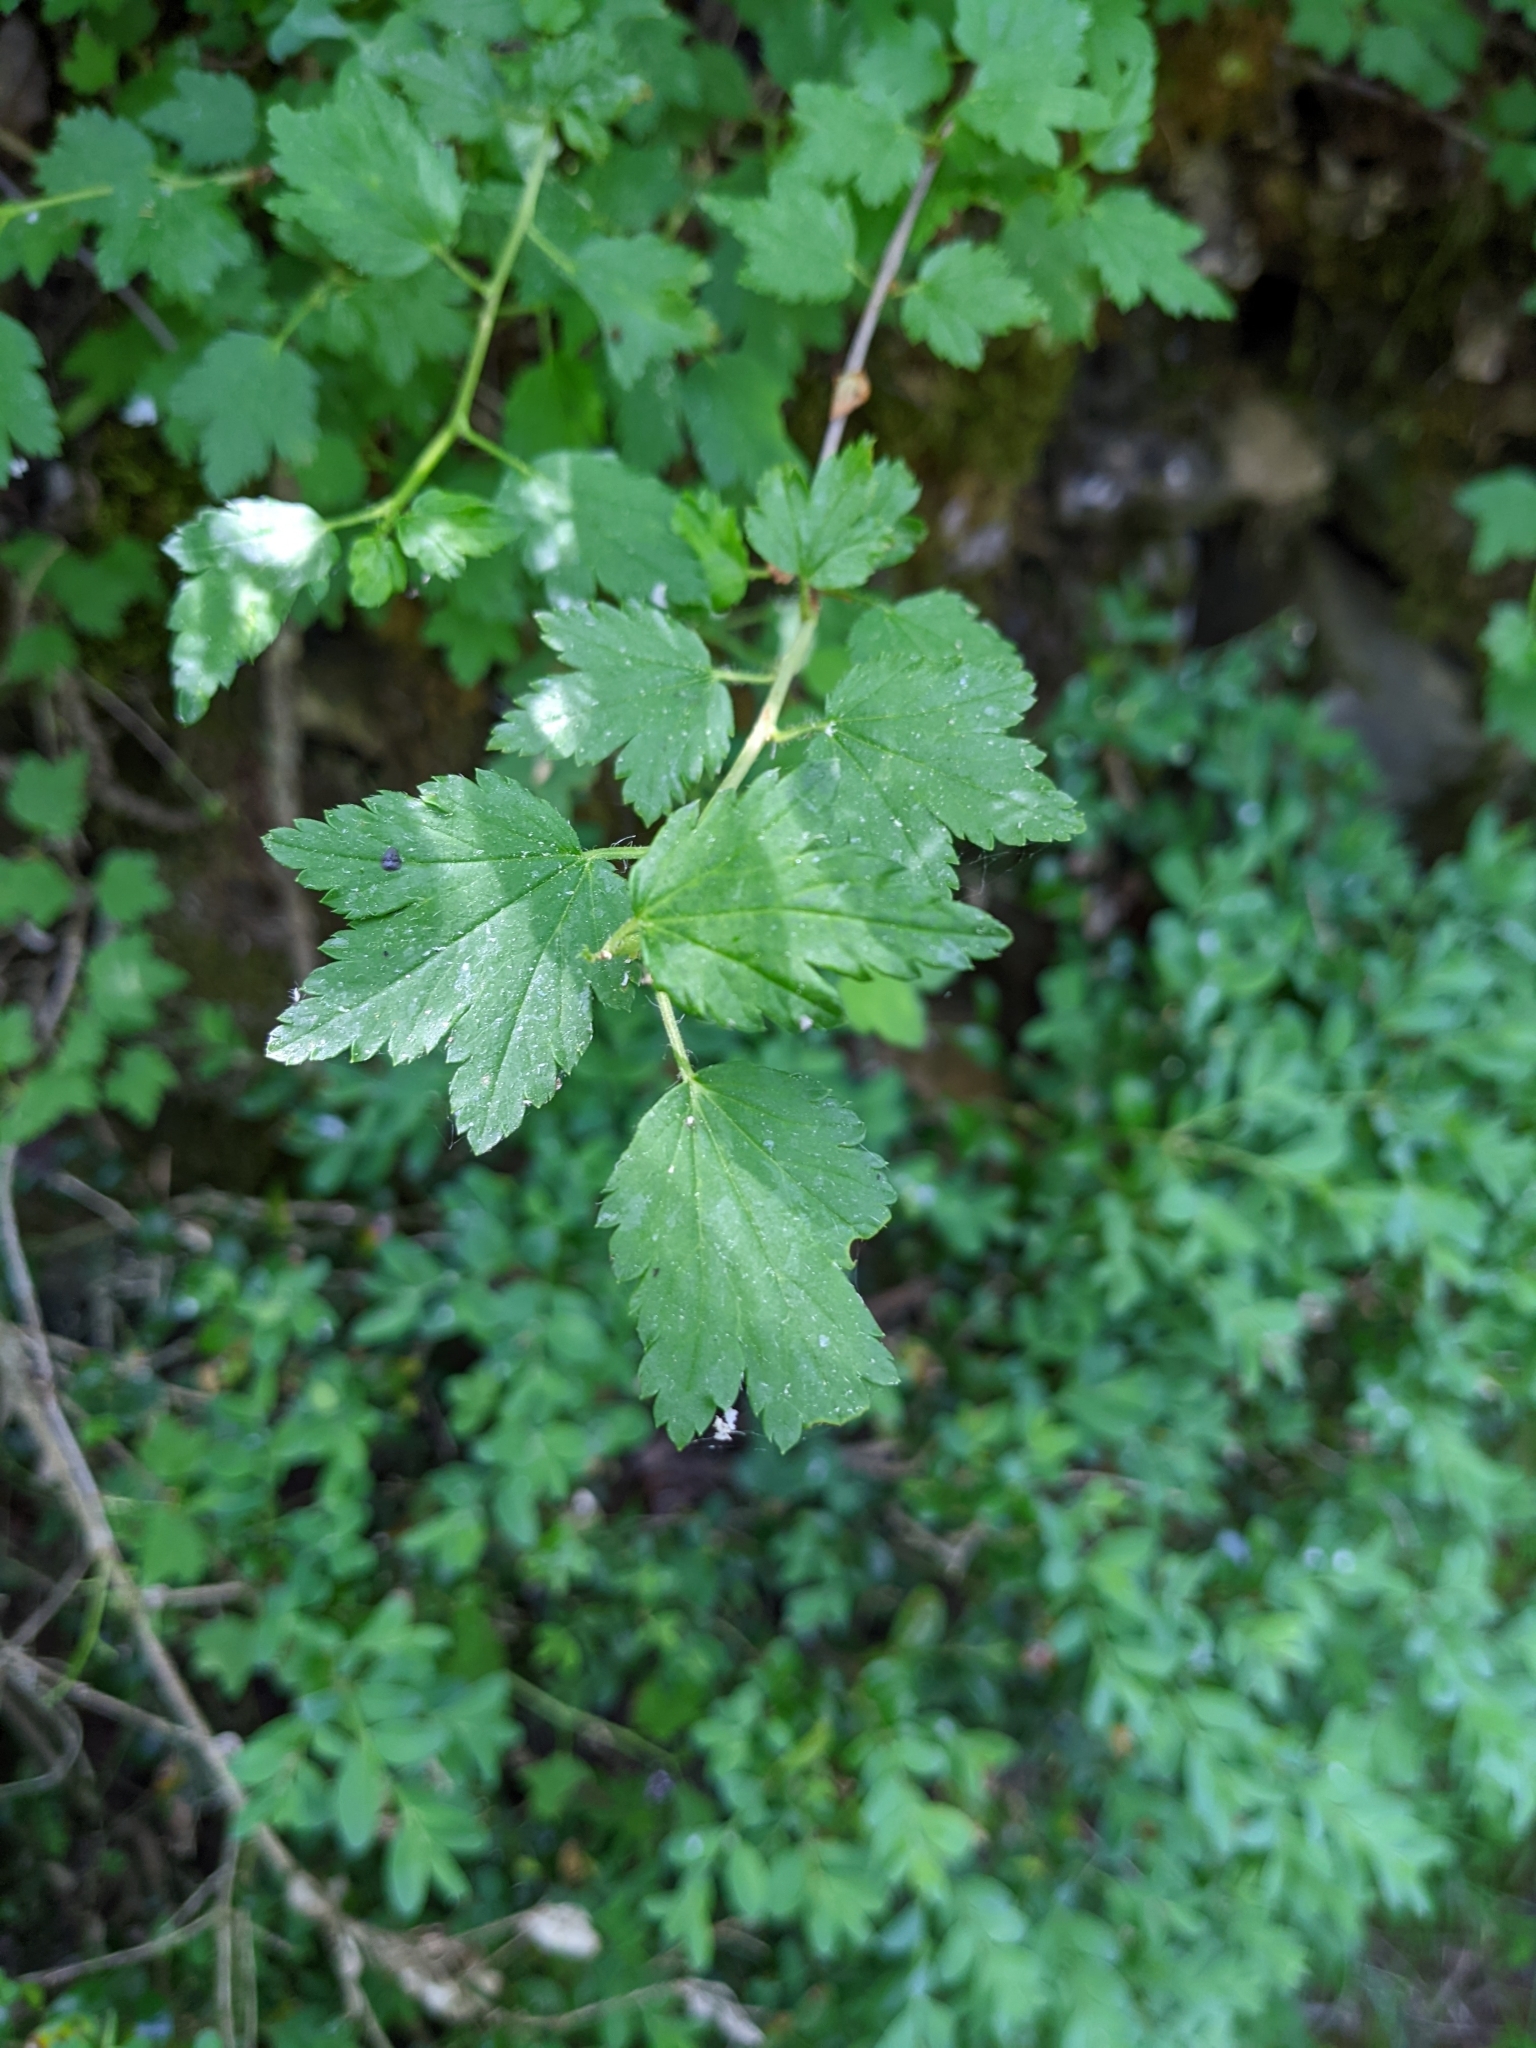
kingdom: Plantae
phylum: Tracheophyta
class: Magnoliopsida
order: Saxifragales
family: Grossulariaceae
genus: Ribes
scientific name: Ribes alpinum
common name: Alpine currant
